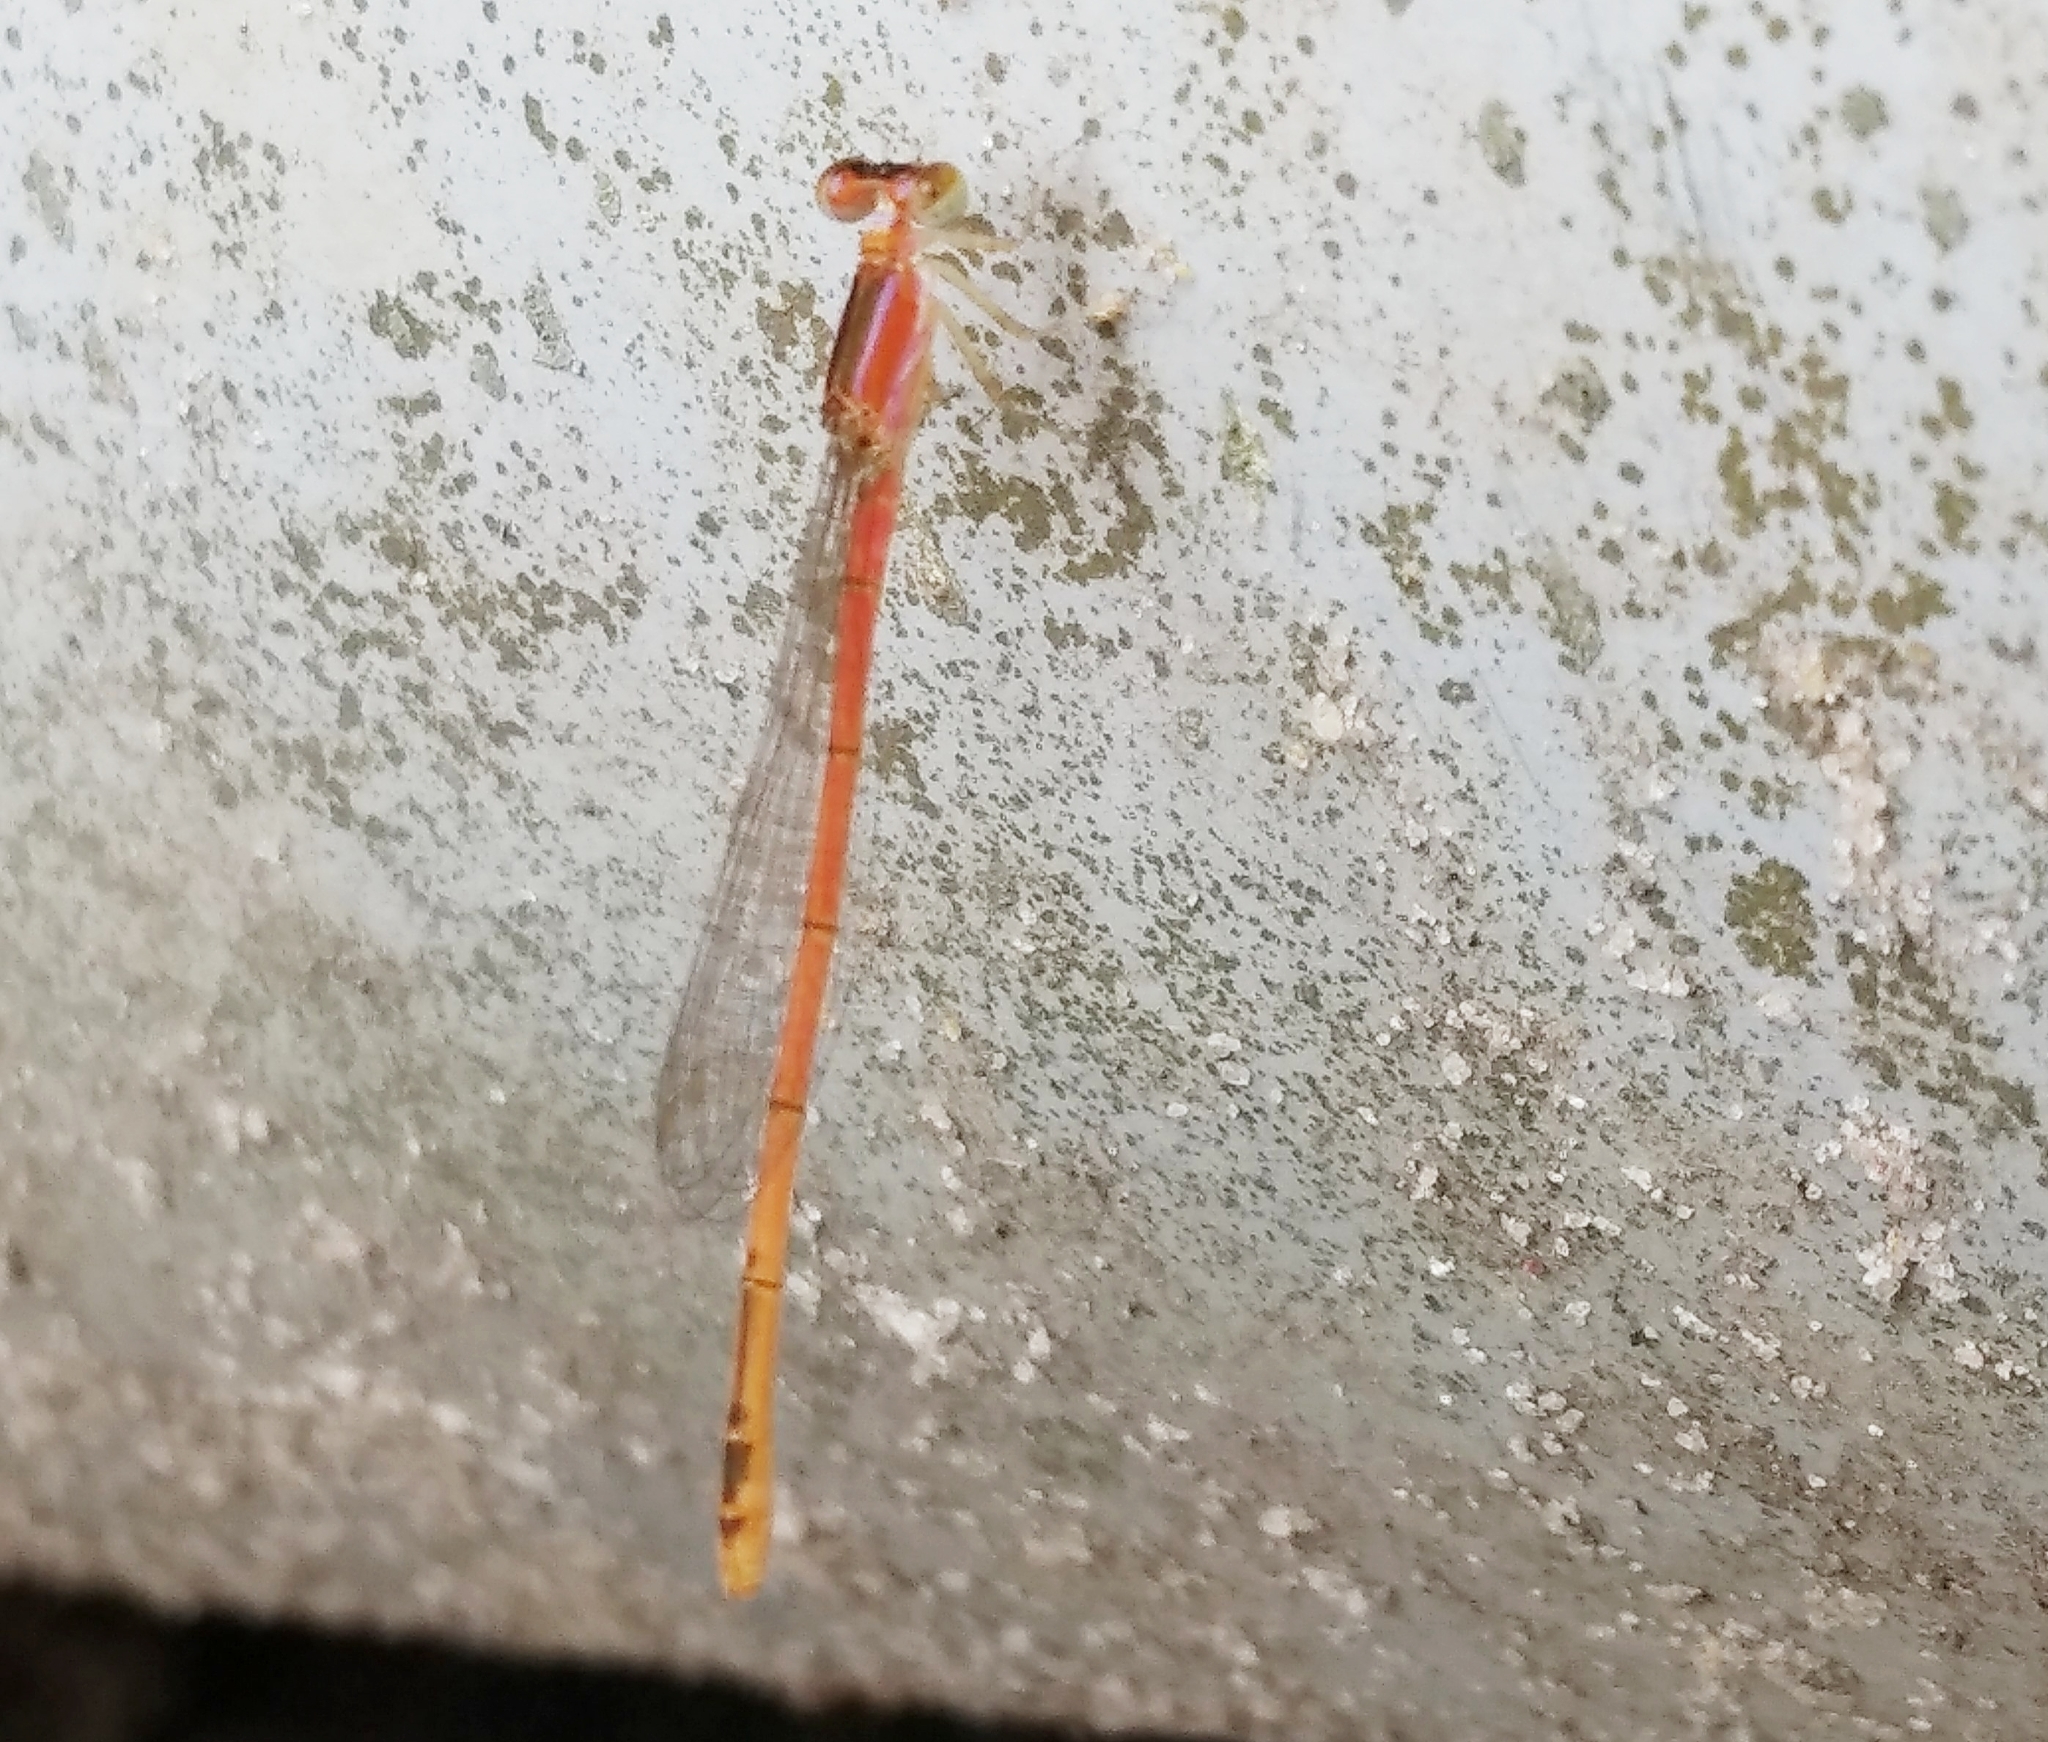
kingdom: Animalia
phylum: Arthropoda
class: Insecta
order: Odonata
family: Coenagrionidae
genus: Agriocnemis
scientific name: Agriocnemis pygmaea
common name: Pygmy wisp
